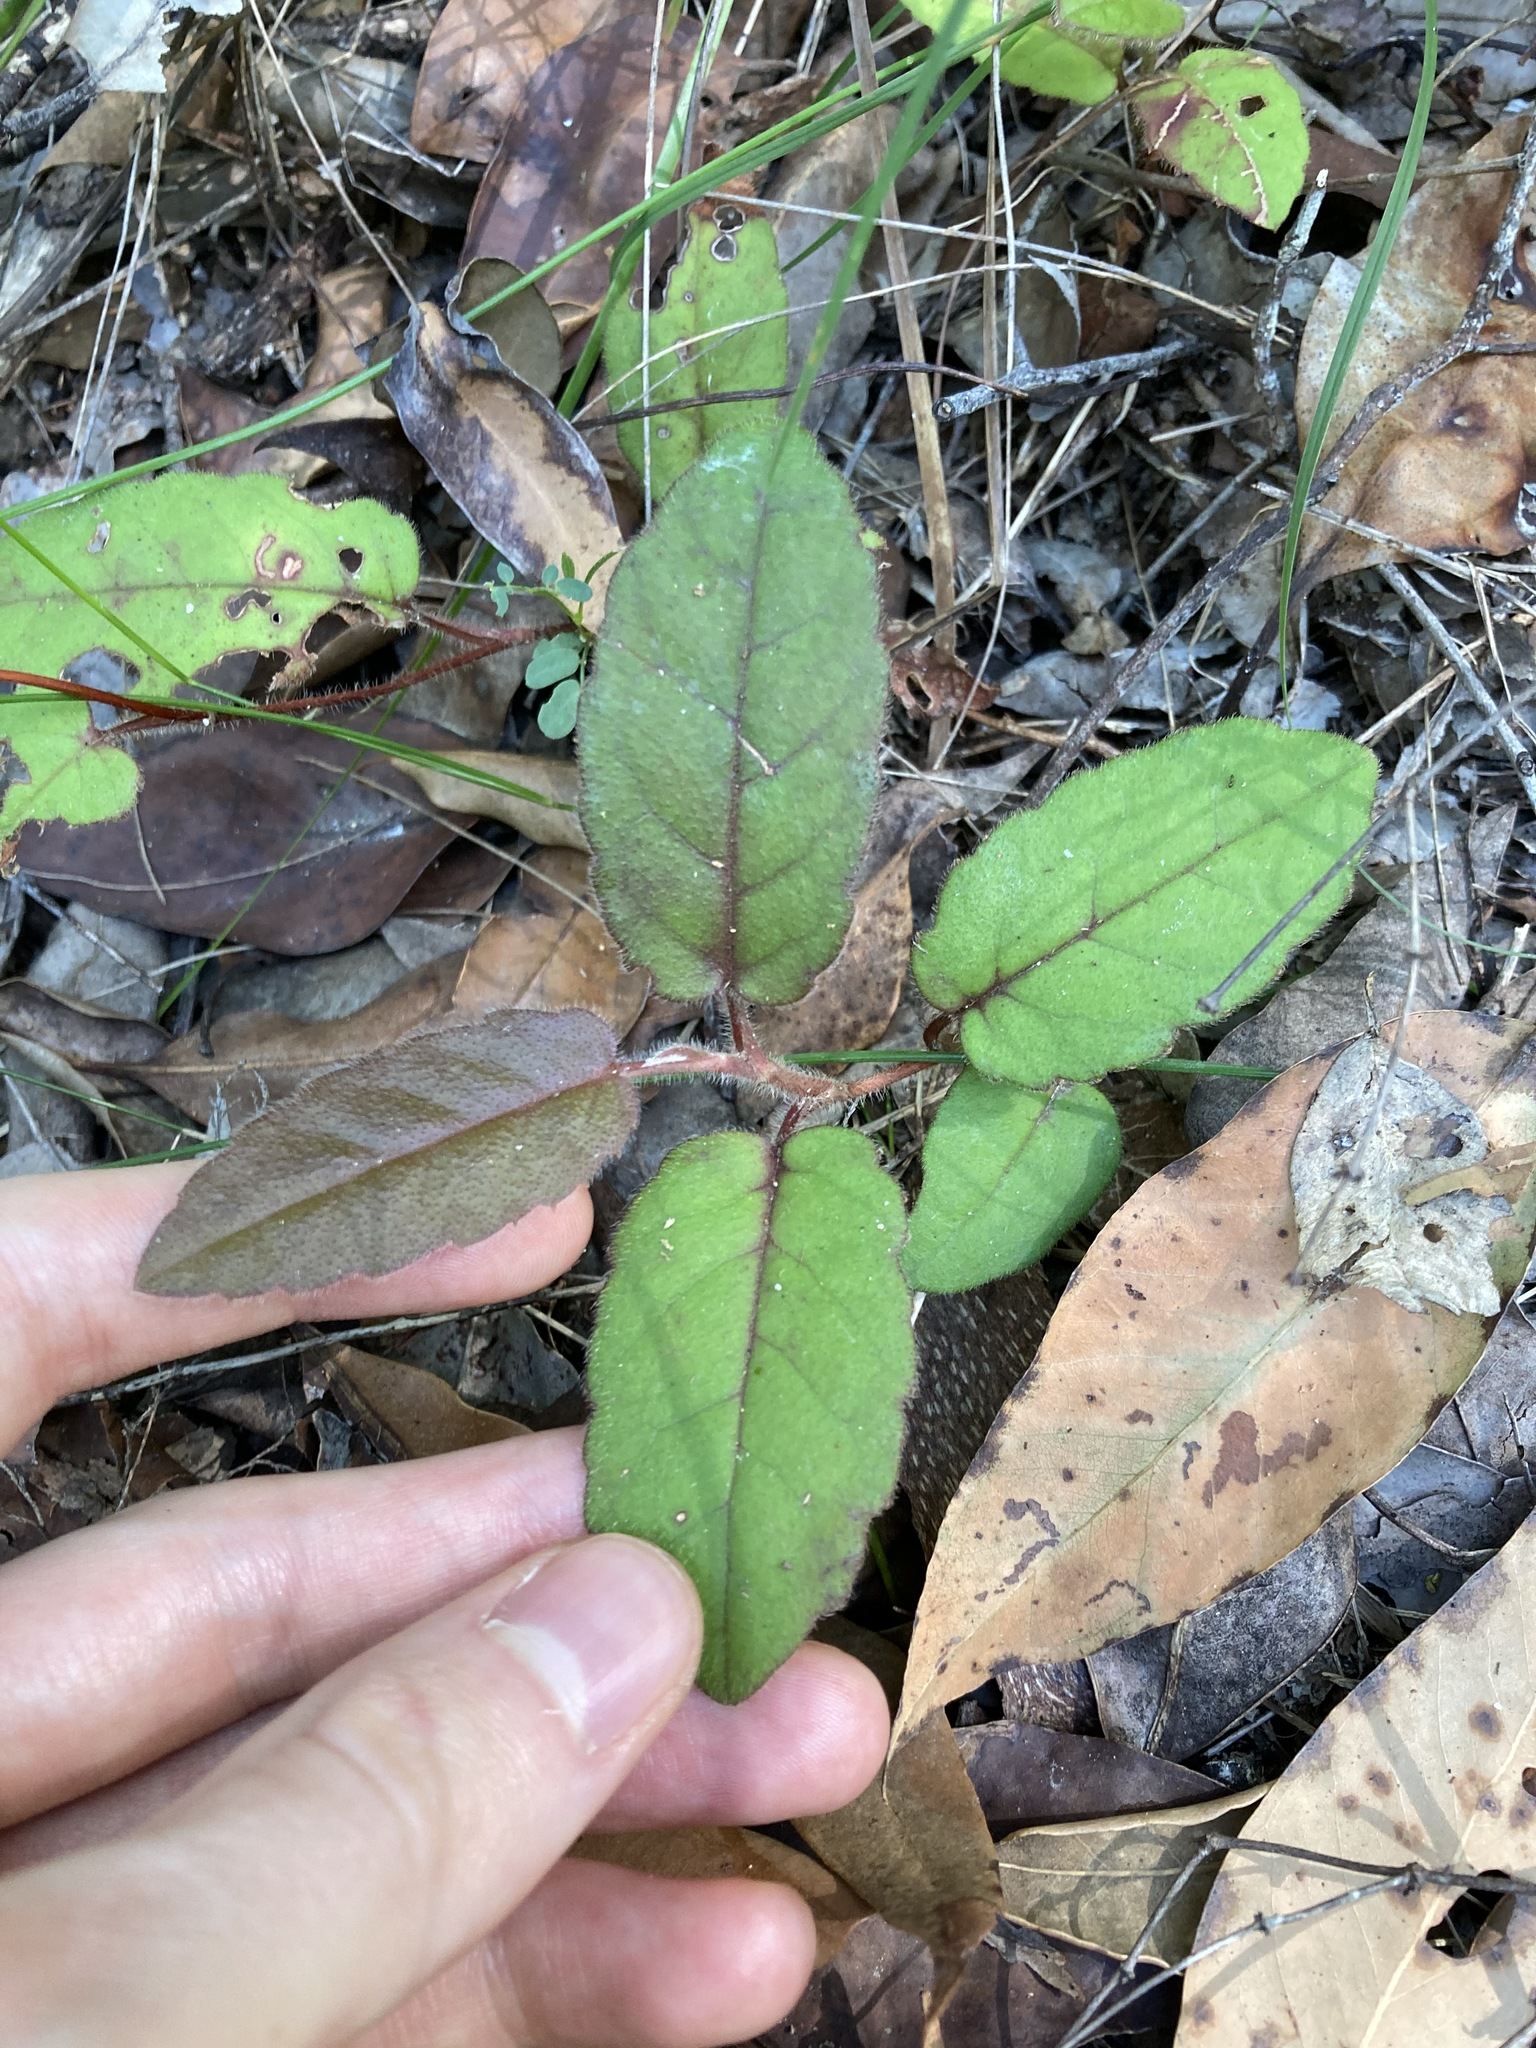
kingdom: Plantae
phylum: Tracheophyta
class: Magnoliopsida
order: Dilleniales
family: Dilleniaceae
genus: Hibbertia
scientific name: Hibbertia dentata
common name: Trailing guinea-flower
